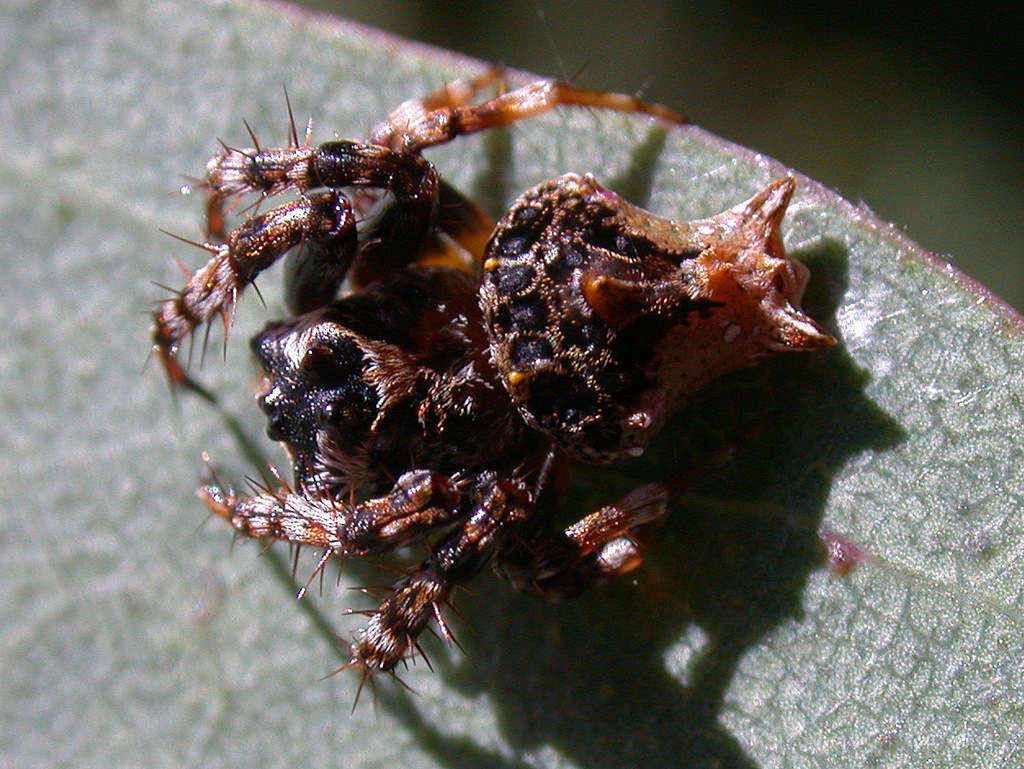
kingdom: Animalia
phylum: Arthropoda
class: Arachnida
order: Araneae
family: Arkyidae
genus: Arkys
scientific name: Arkys alticephala
